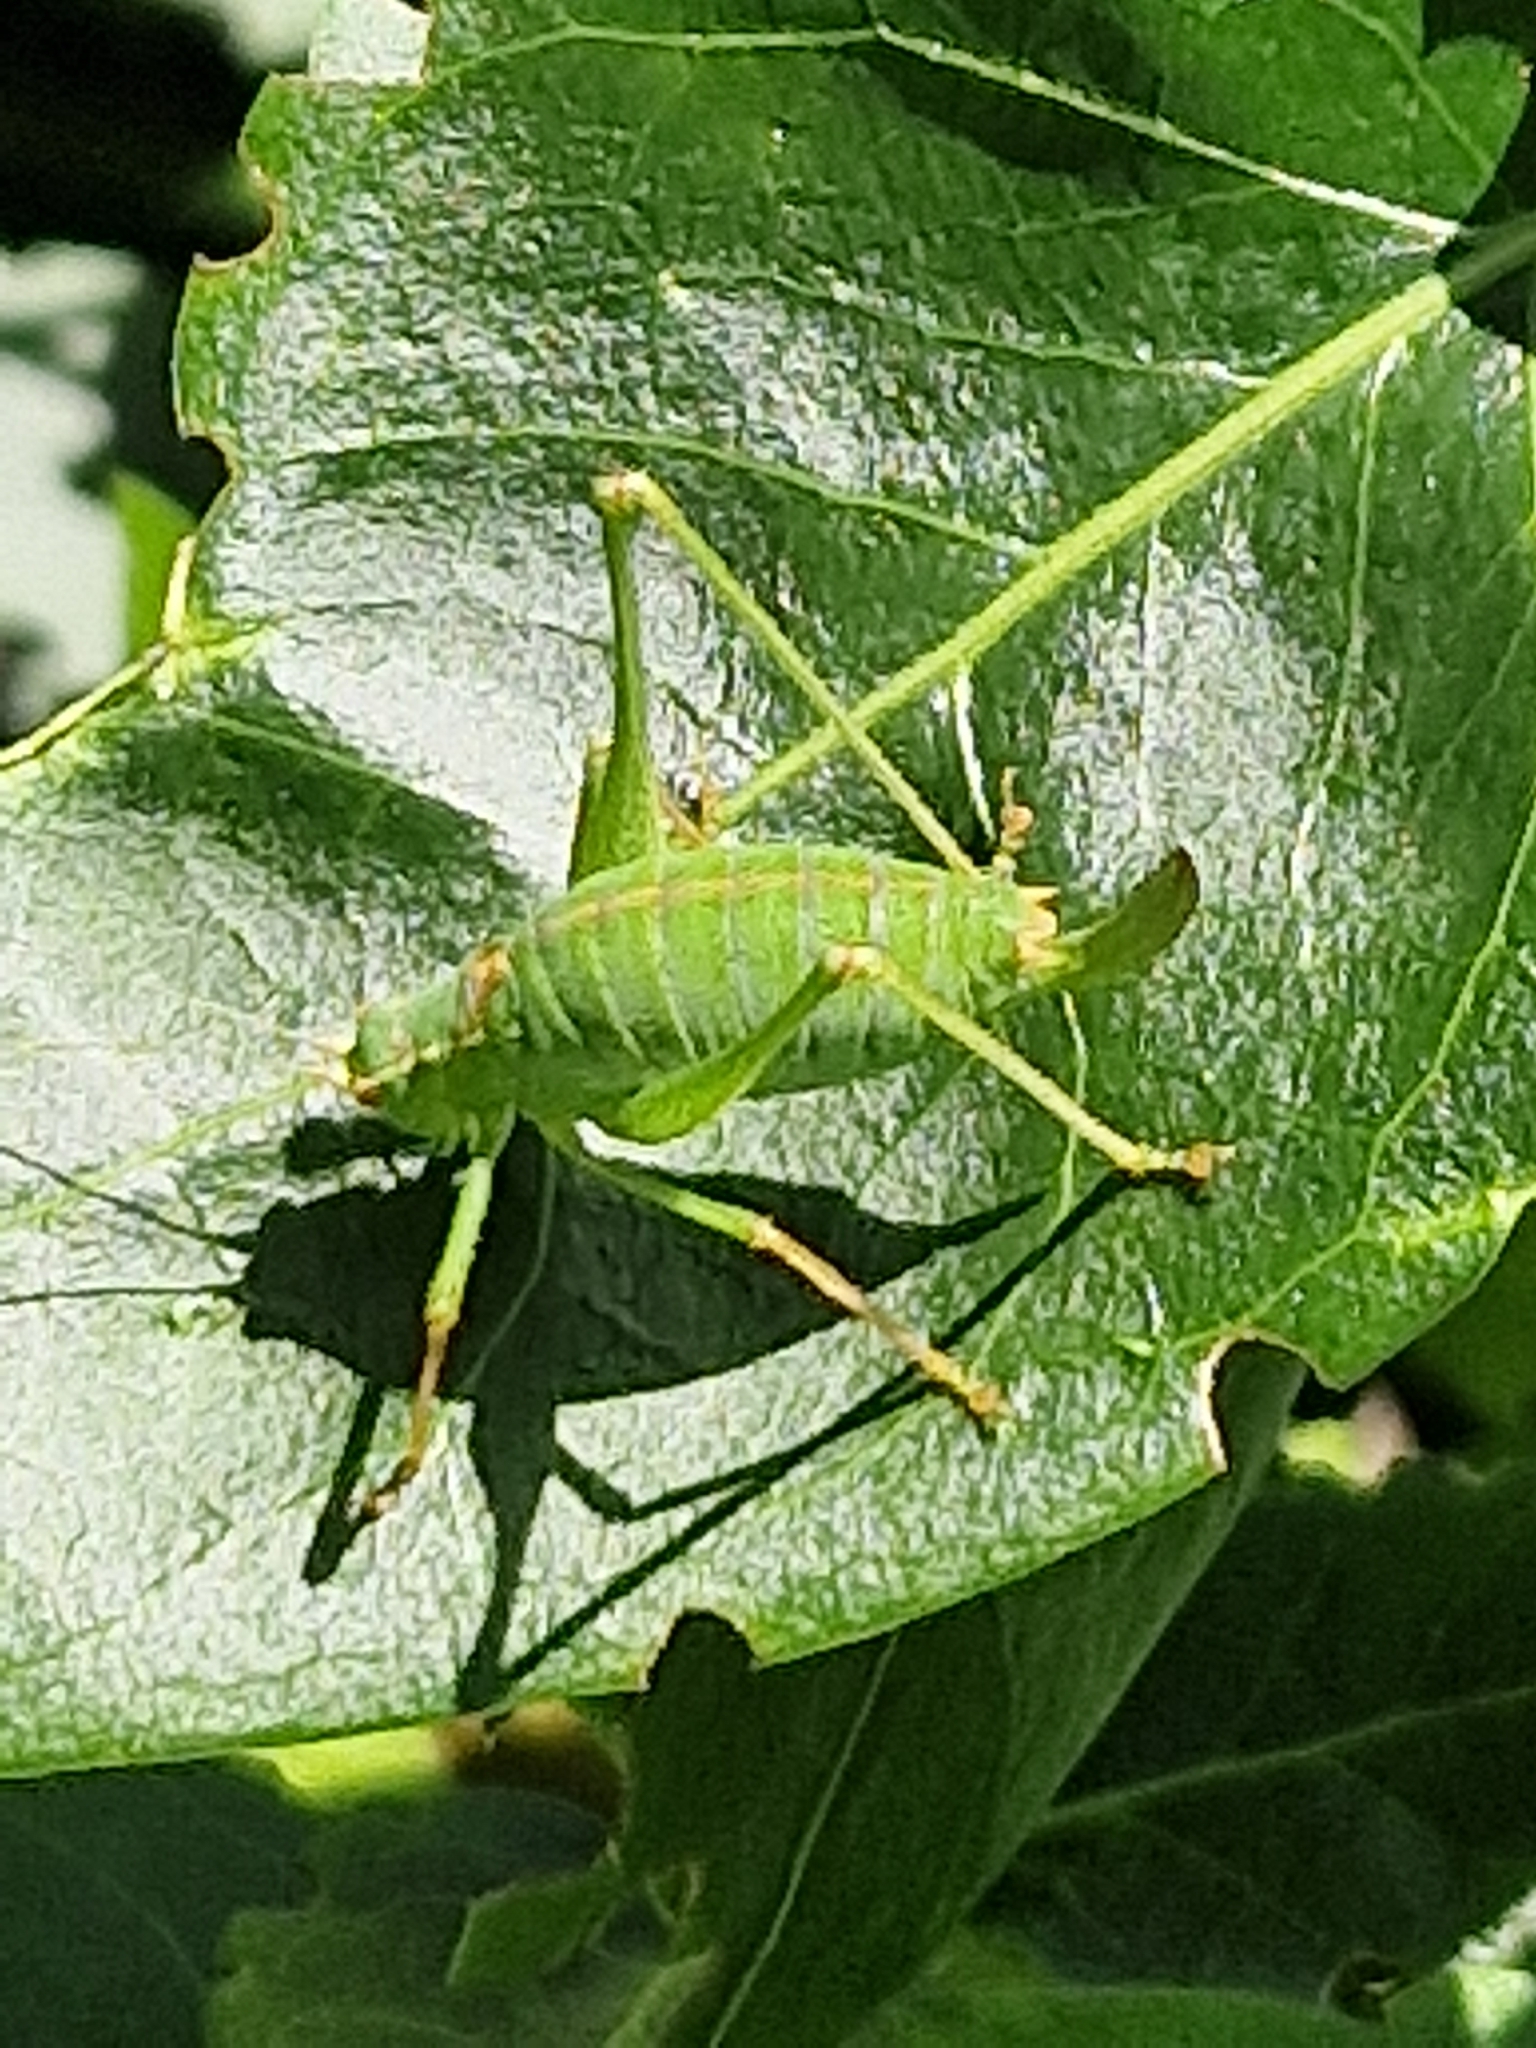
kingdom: Animalia
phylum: Arthropoda
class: Insecta
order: Orthoptera
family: Tettigoniidae
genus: Leptophyes
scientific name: Leptophyes punctatissima
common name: Speckled bush-cricket
